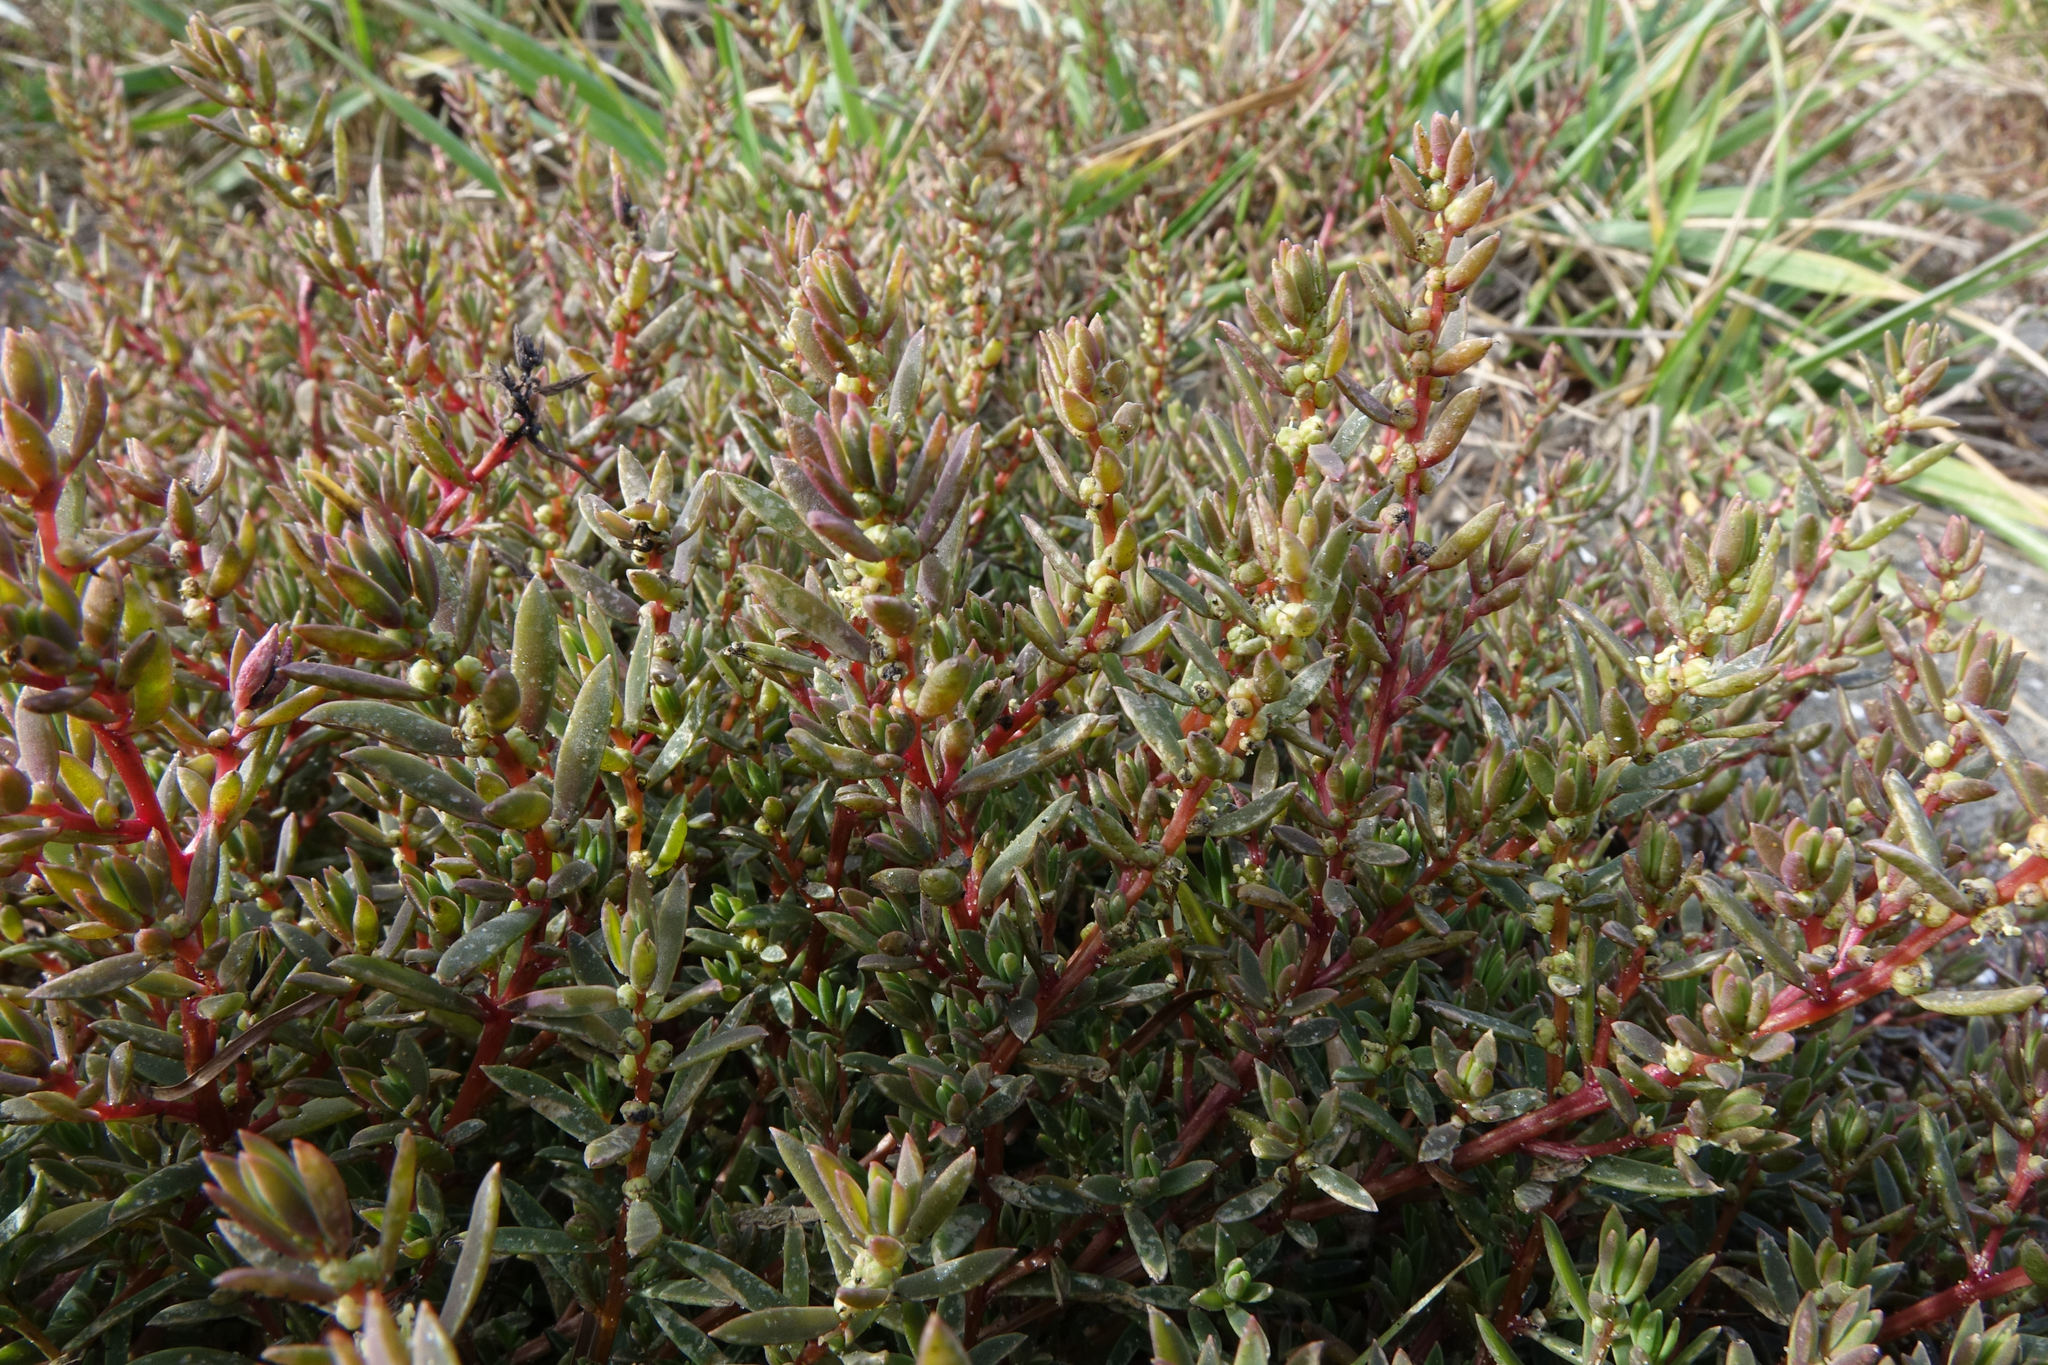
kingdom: Plantae
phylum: Tracheophyta
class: Magnoliopsida
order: Caryophyllales
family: Amaranthaceae
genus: Suaeda
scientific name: Suaeda novae-zelandiae
